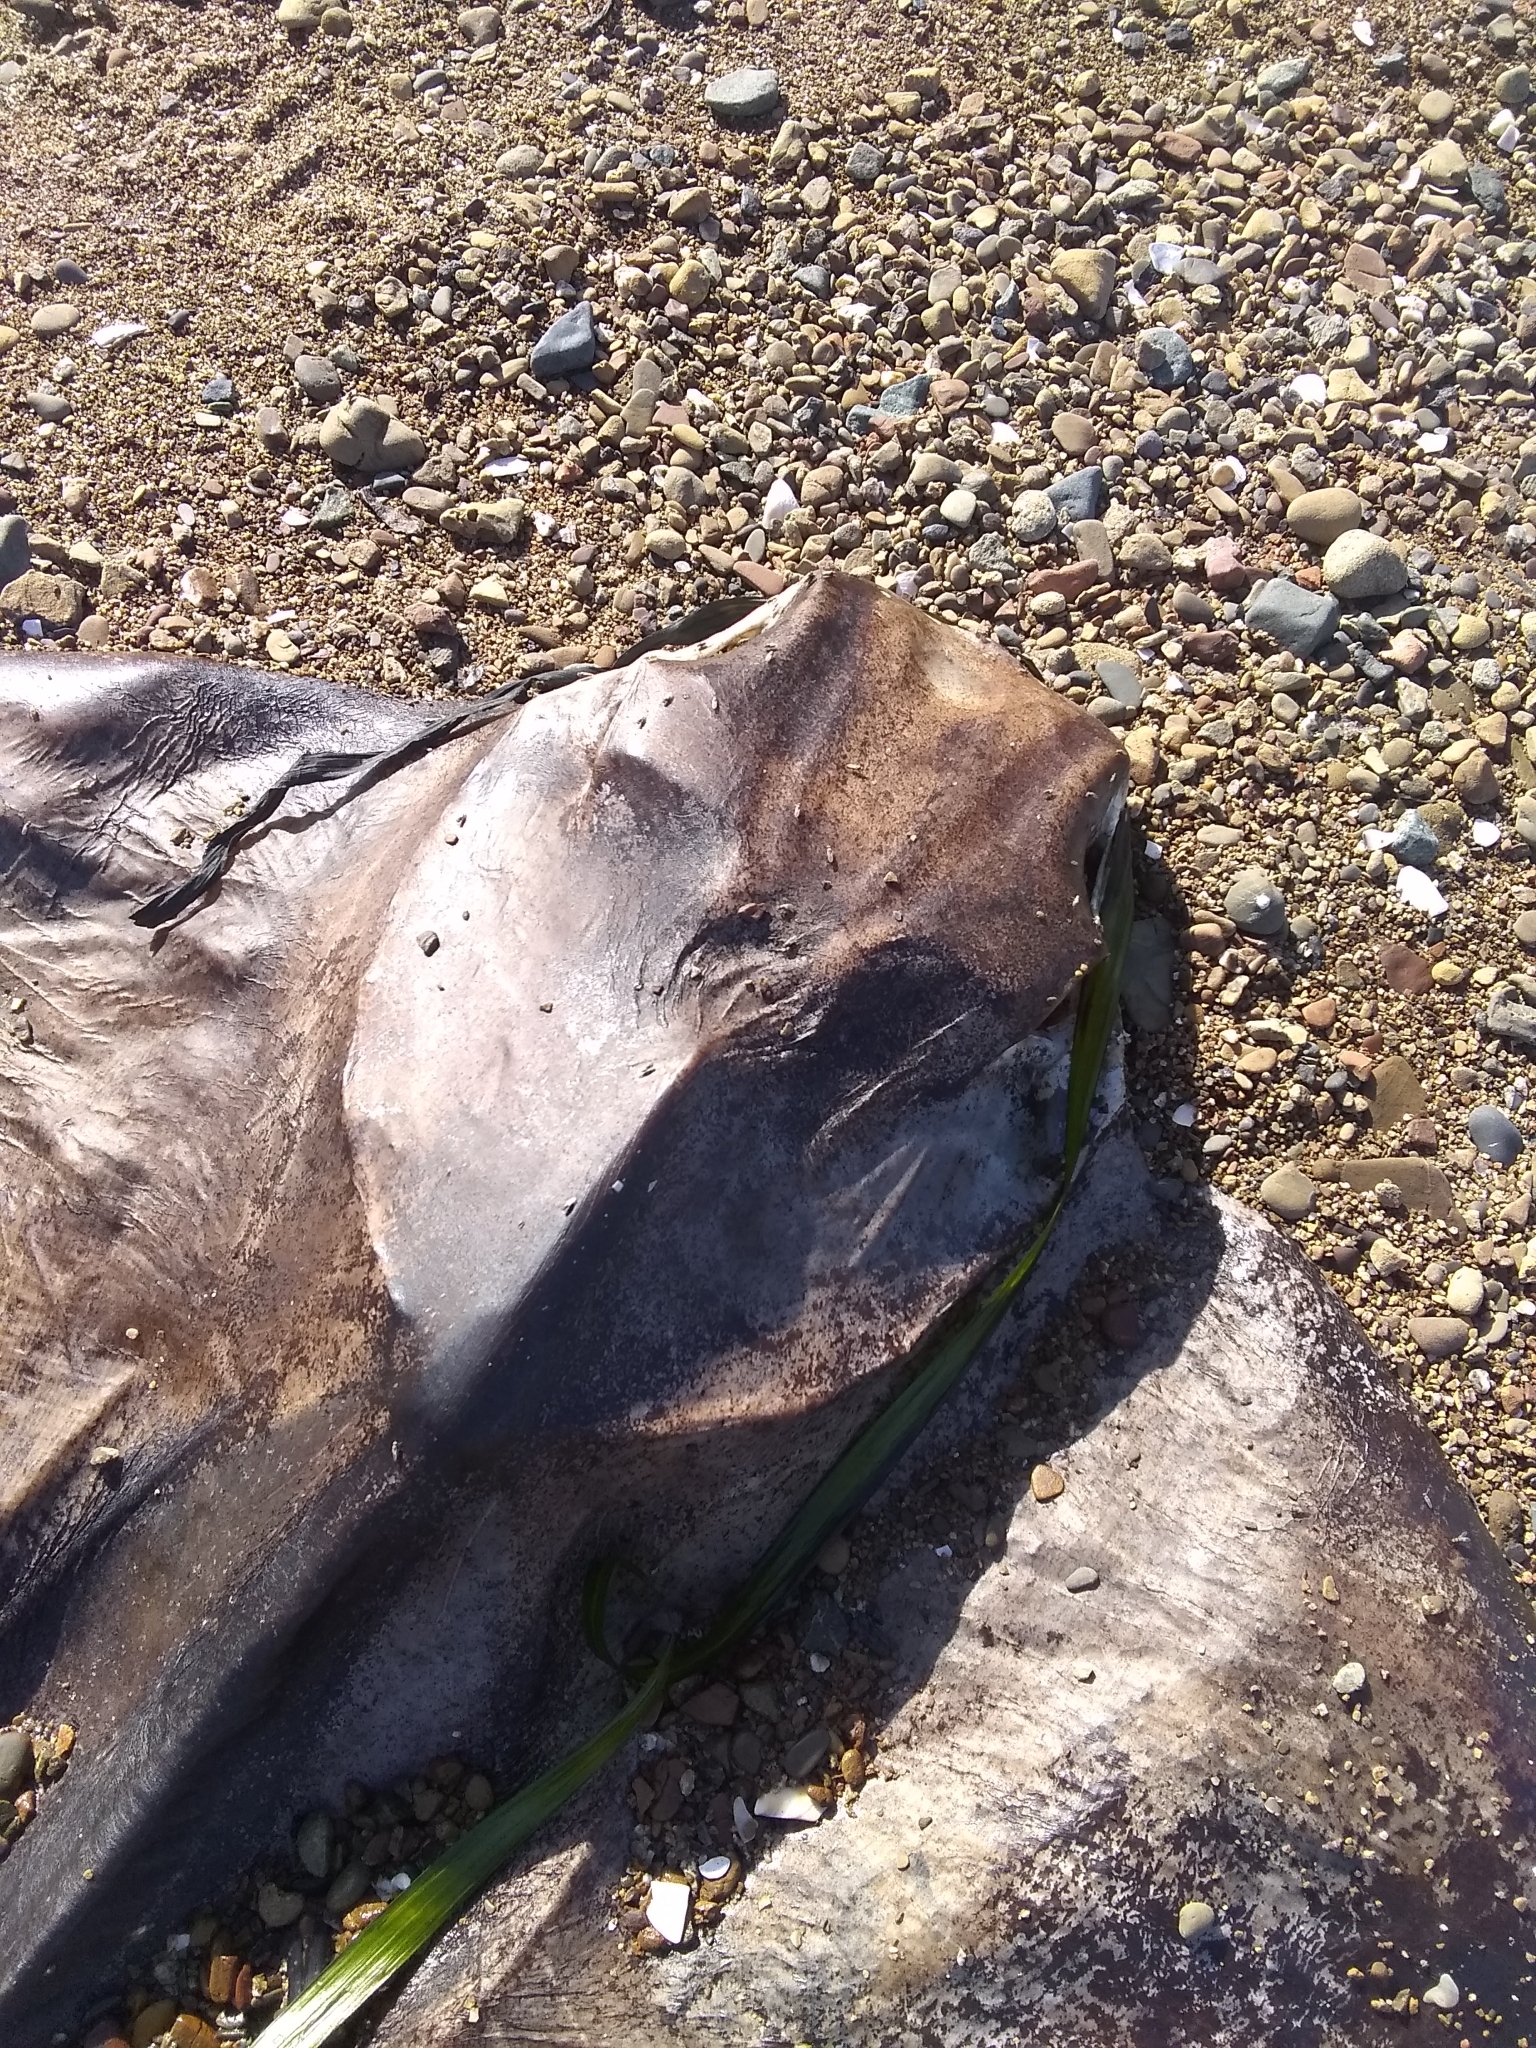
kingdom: Animalia
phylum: Chordata
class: Elasmobranchii
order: Myliobatiformes
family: Myliobatidae
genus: Myliobatis
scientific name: Myliobatis californica
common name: Bat ray
